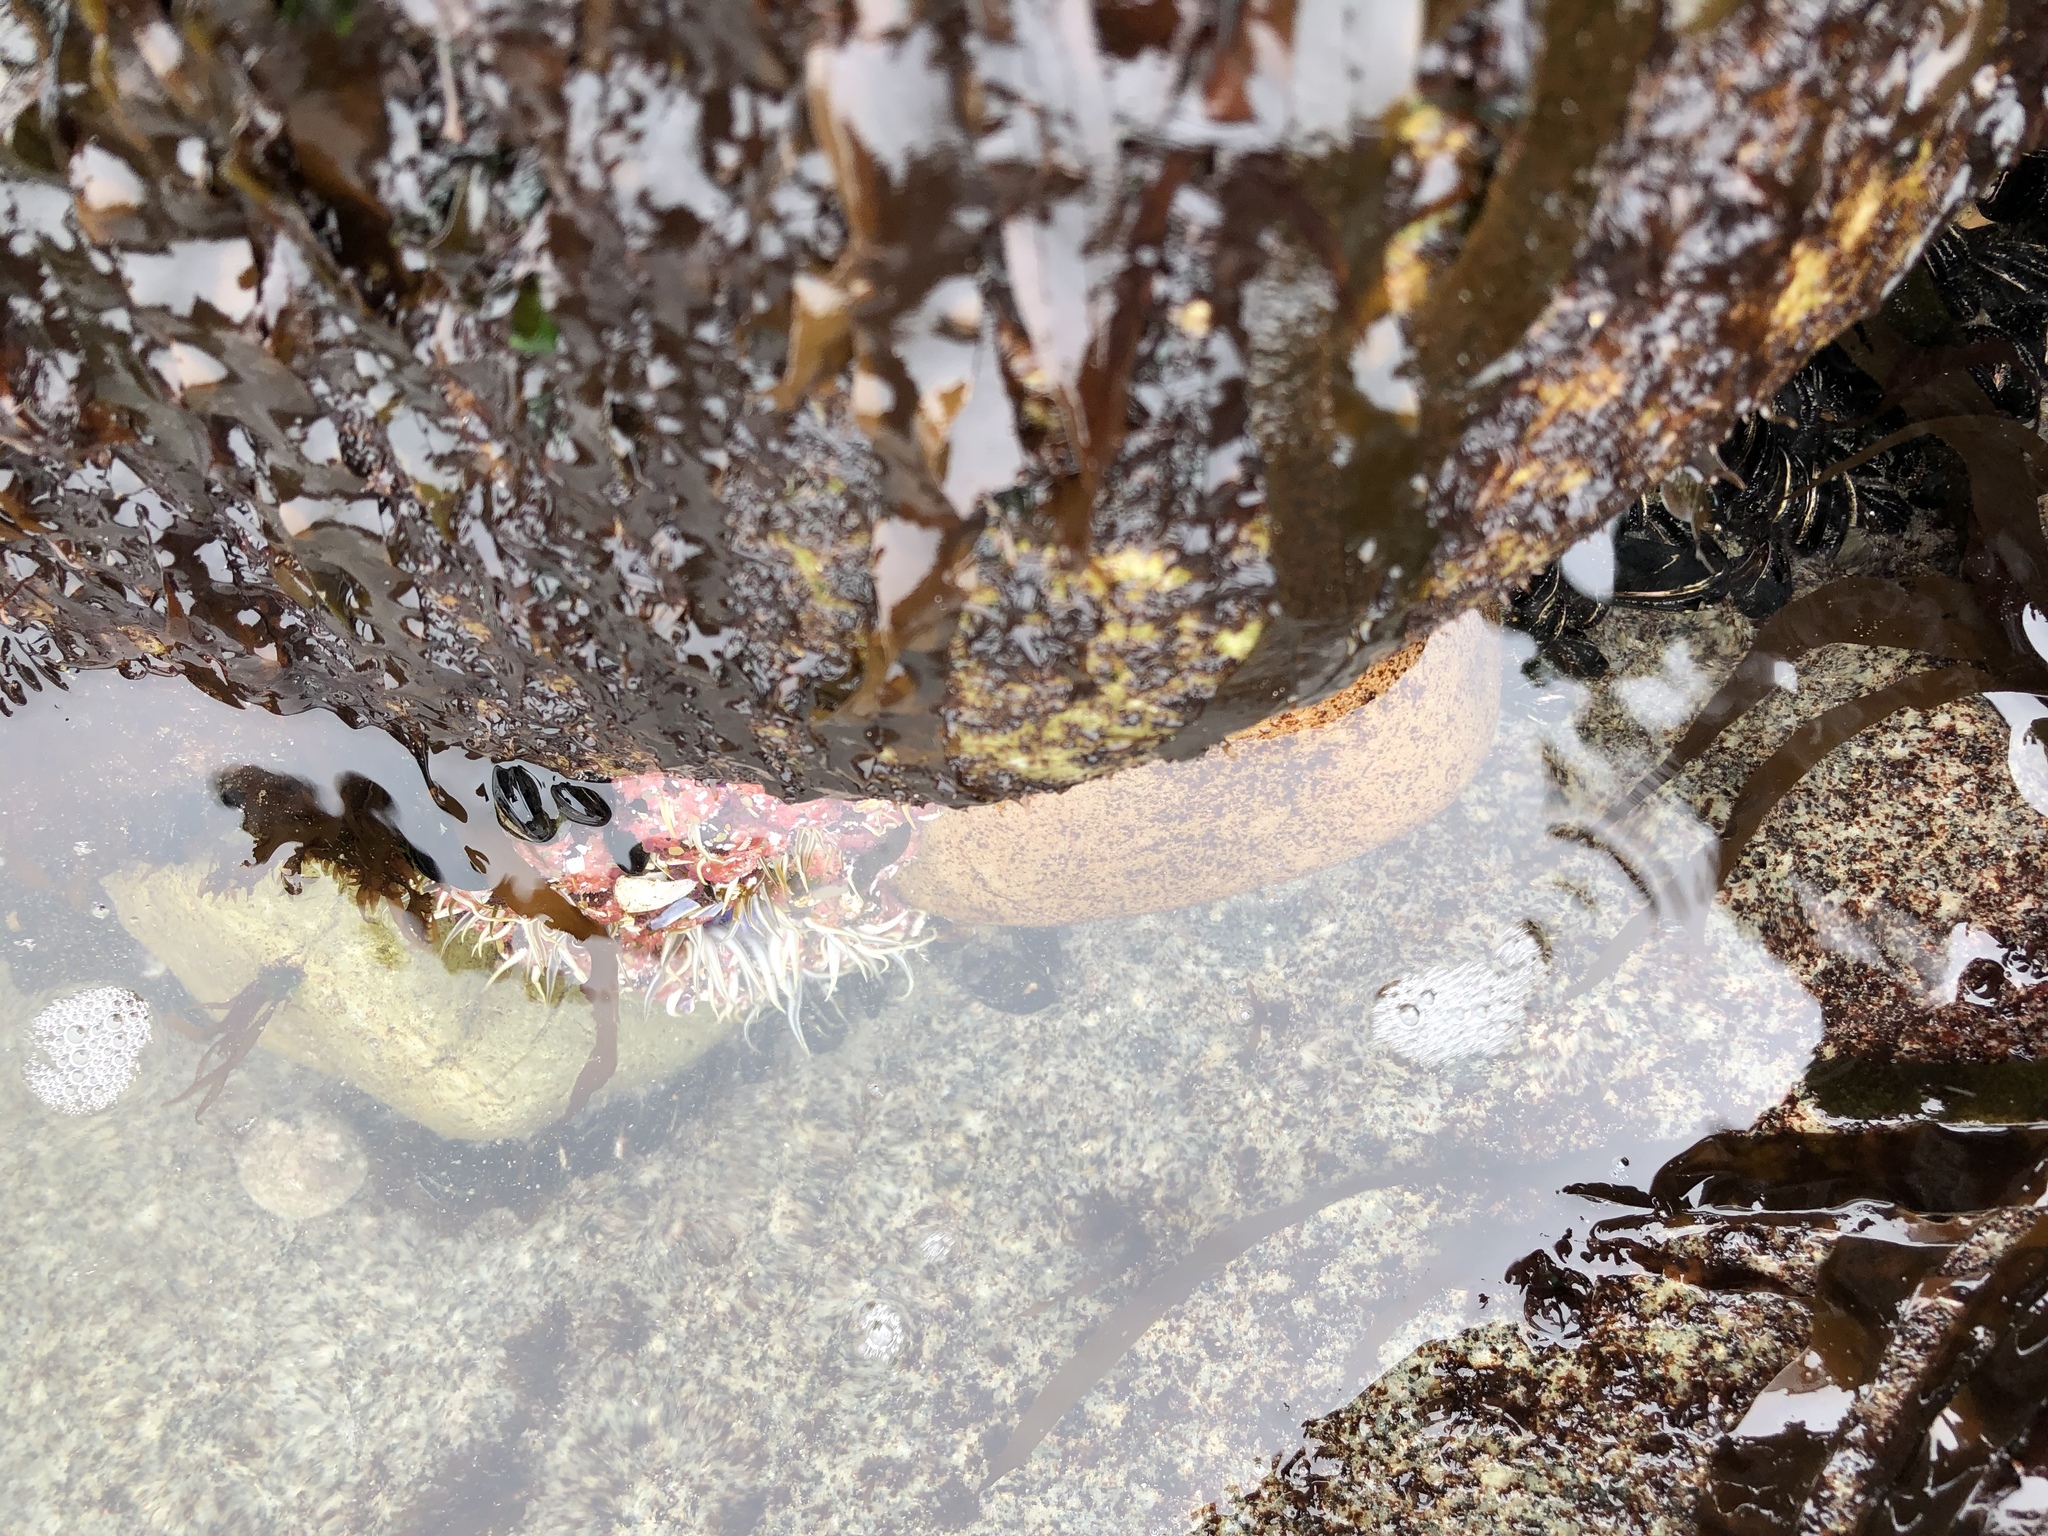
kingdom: Animalia
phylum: Cnidaria
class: Anthozoa
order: Actiniaria
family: Actiniidae
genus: Oulactis
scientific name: Oulactis concinnata
